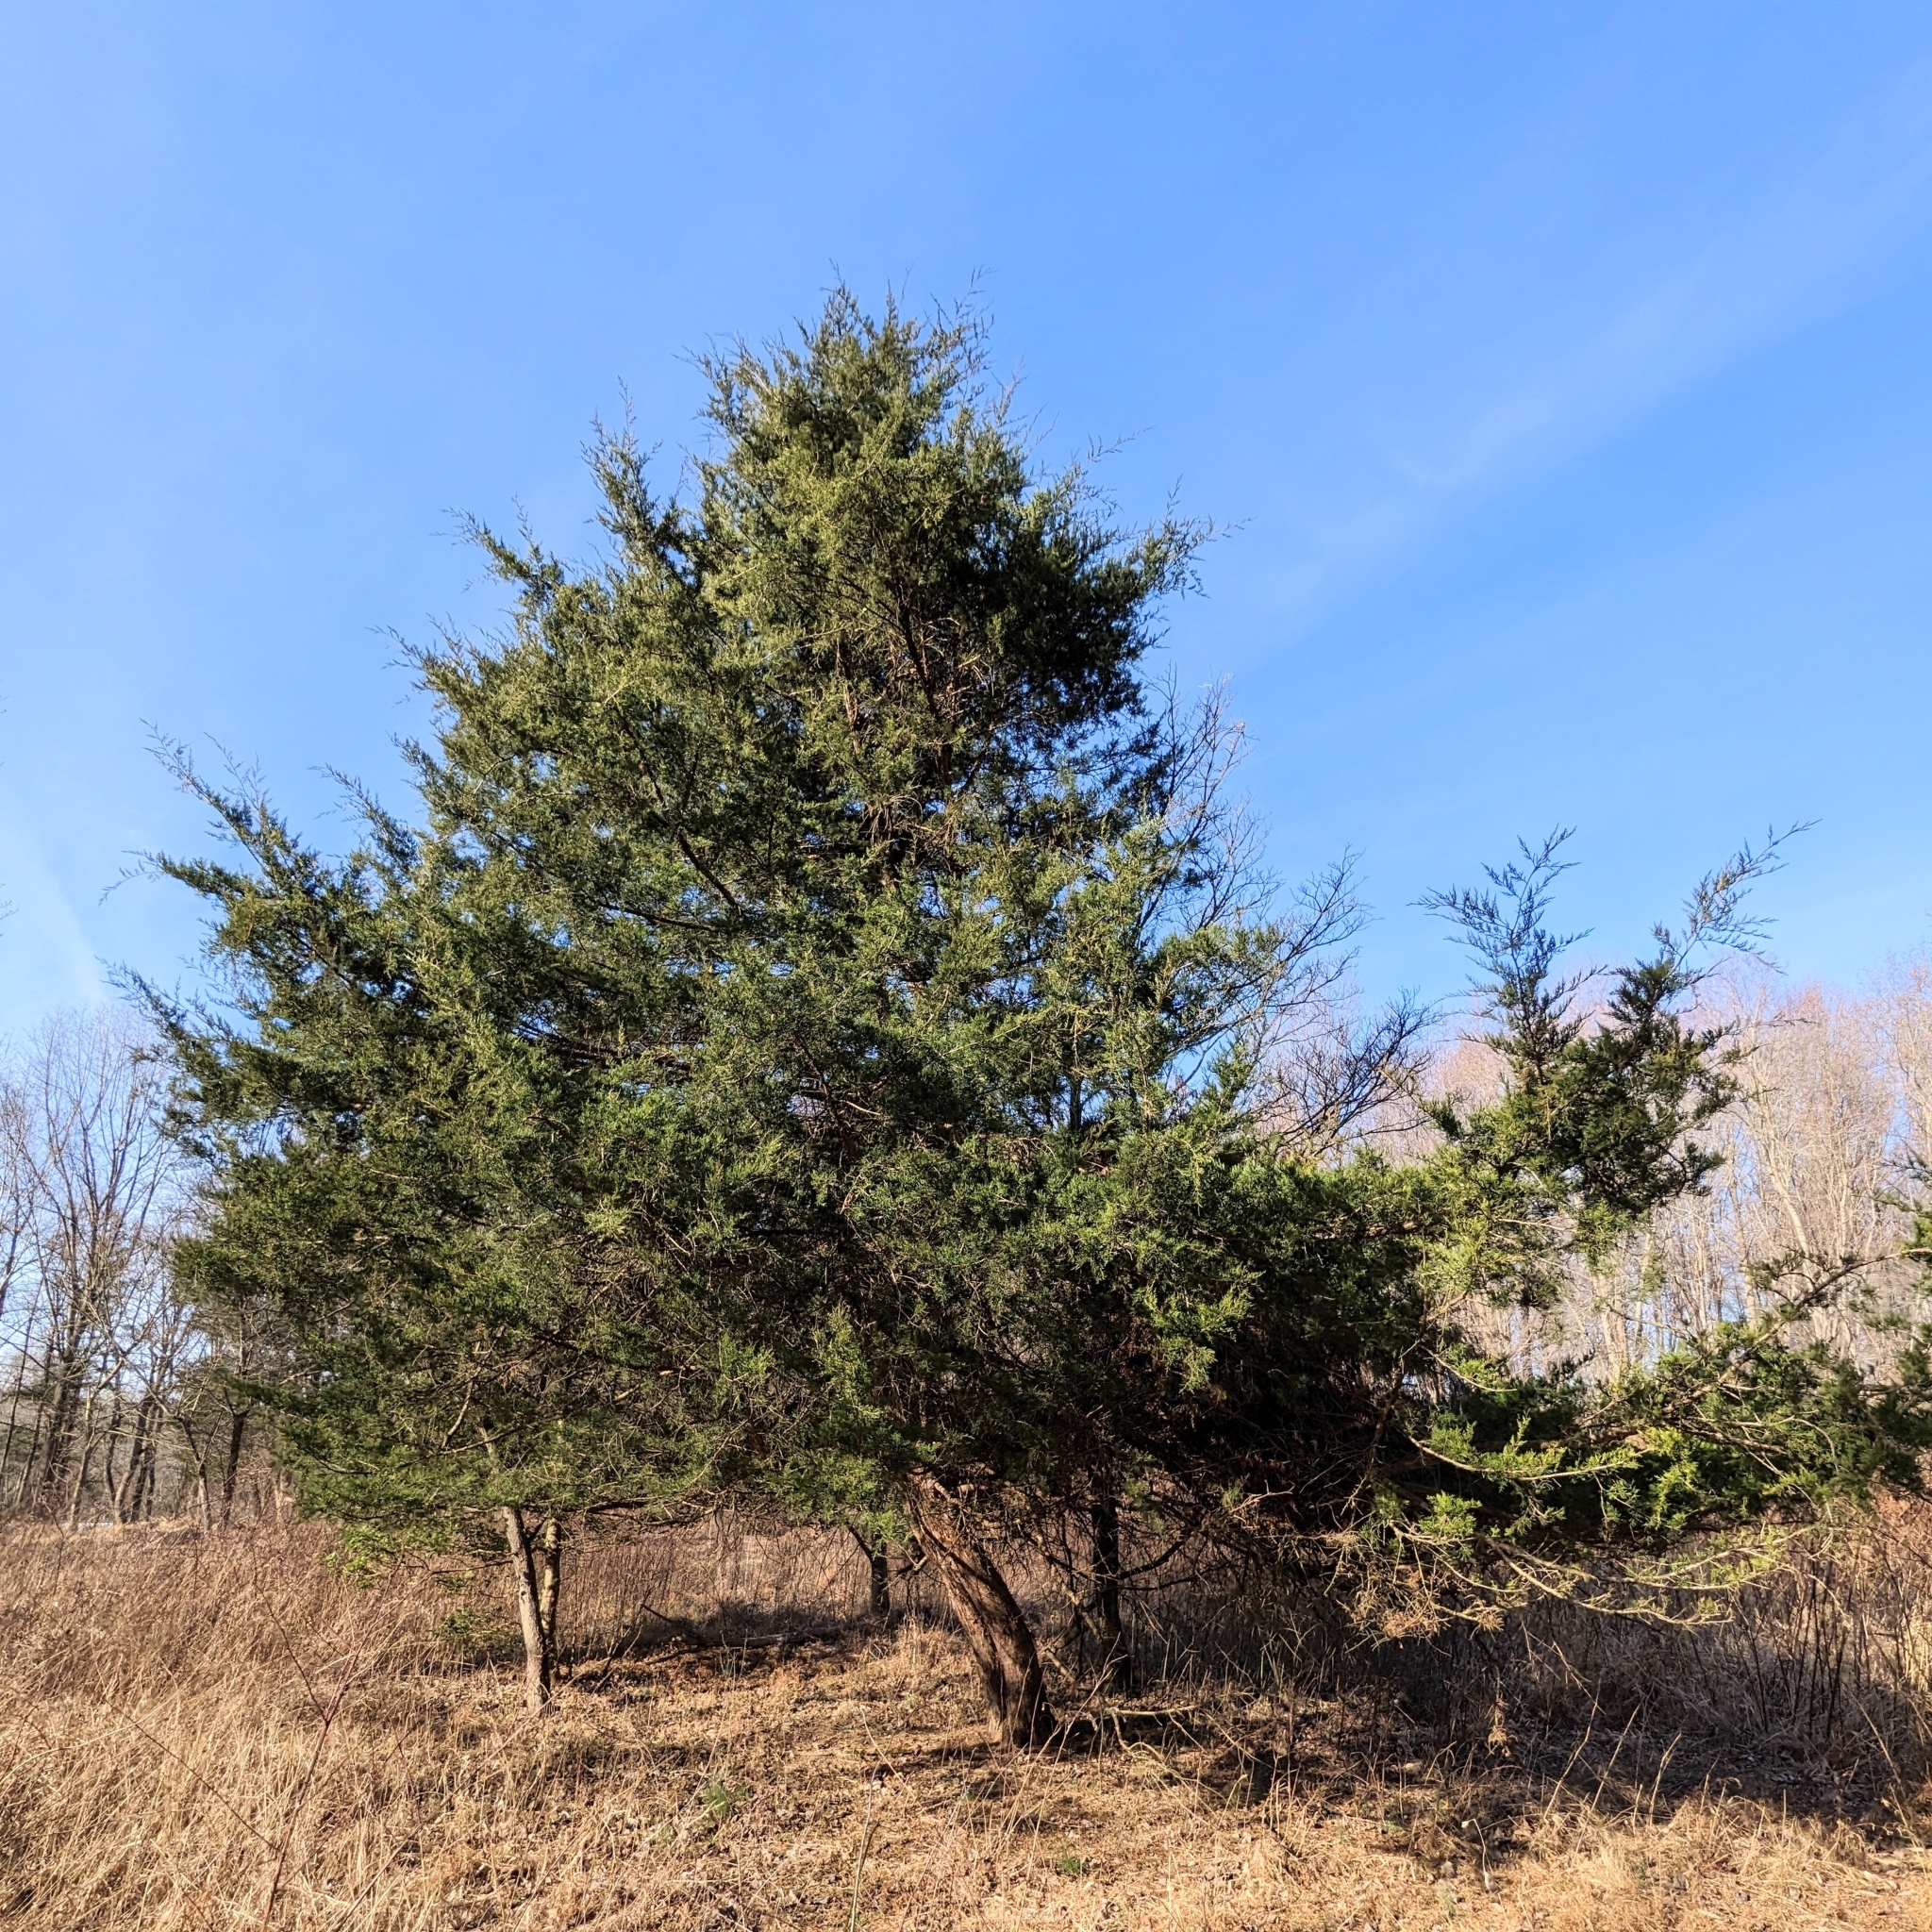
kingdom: Plantae
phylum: Tracheophyta
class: Pinopsida
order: Pinales
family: Cupressaceae
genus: Juniperus
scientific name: Juniperus virginiana
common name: Red juniper
